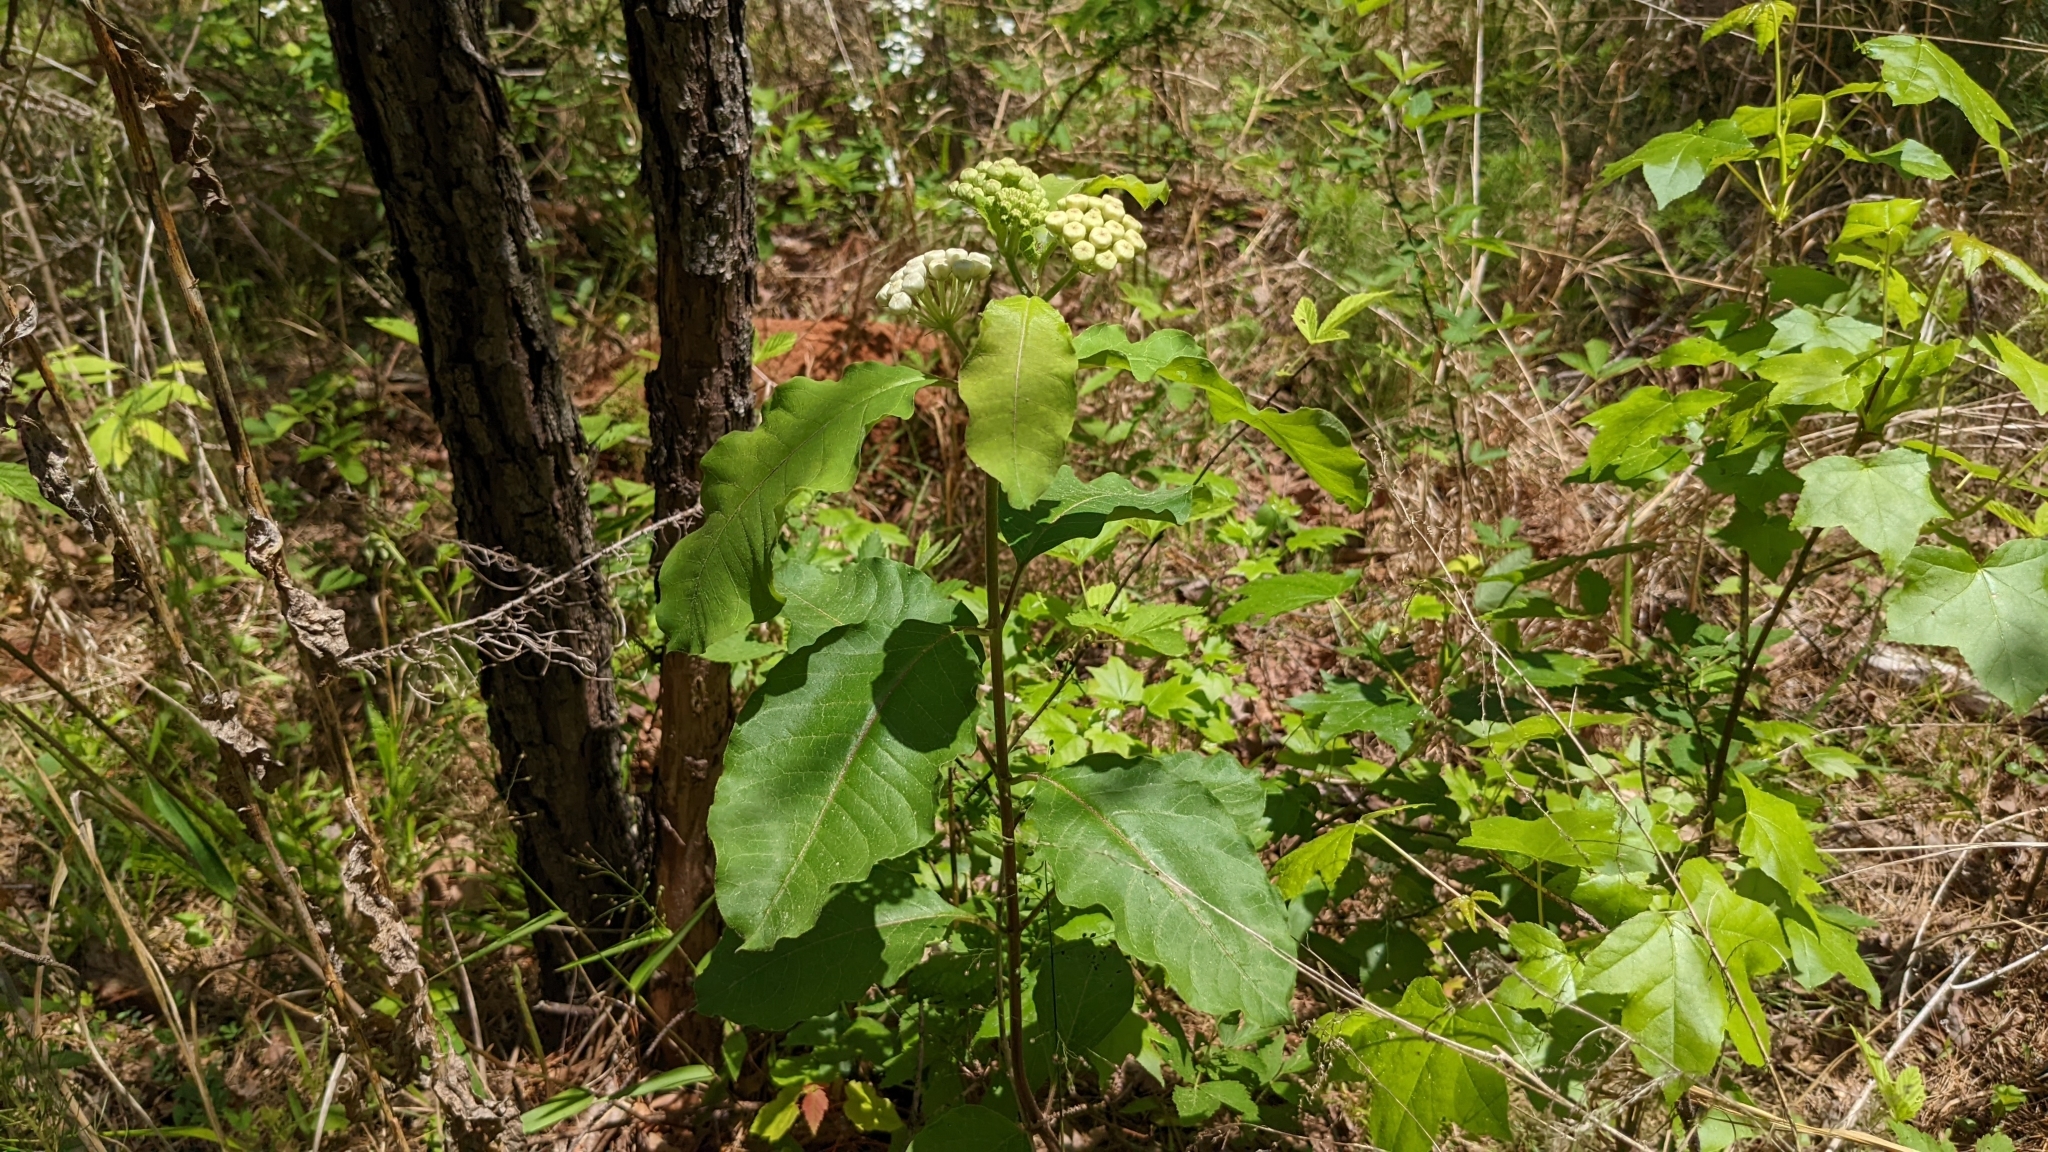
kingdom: Plantae
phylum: Tracheophyta
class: Magnoliopsida
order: Gentianales
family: Apocynaceae
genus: Asclepias
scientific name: Asclepias variegata
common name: Variegated milkweed
